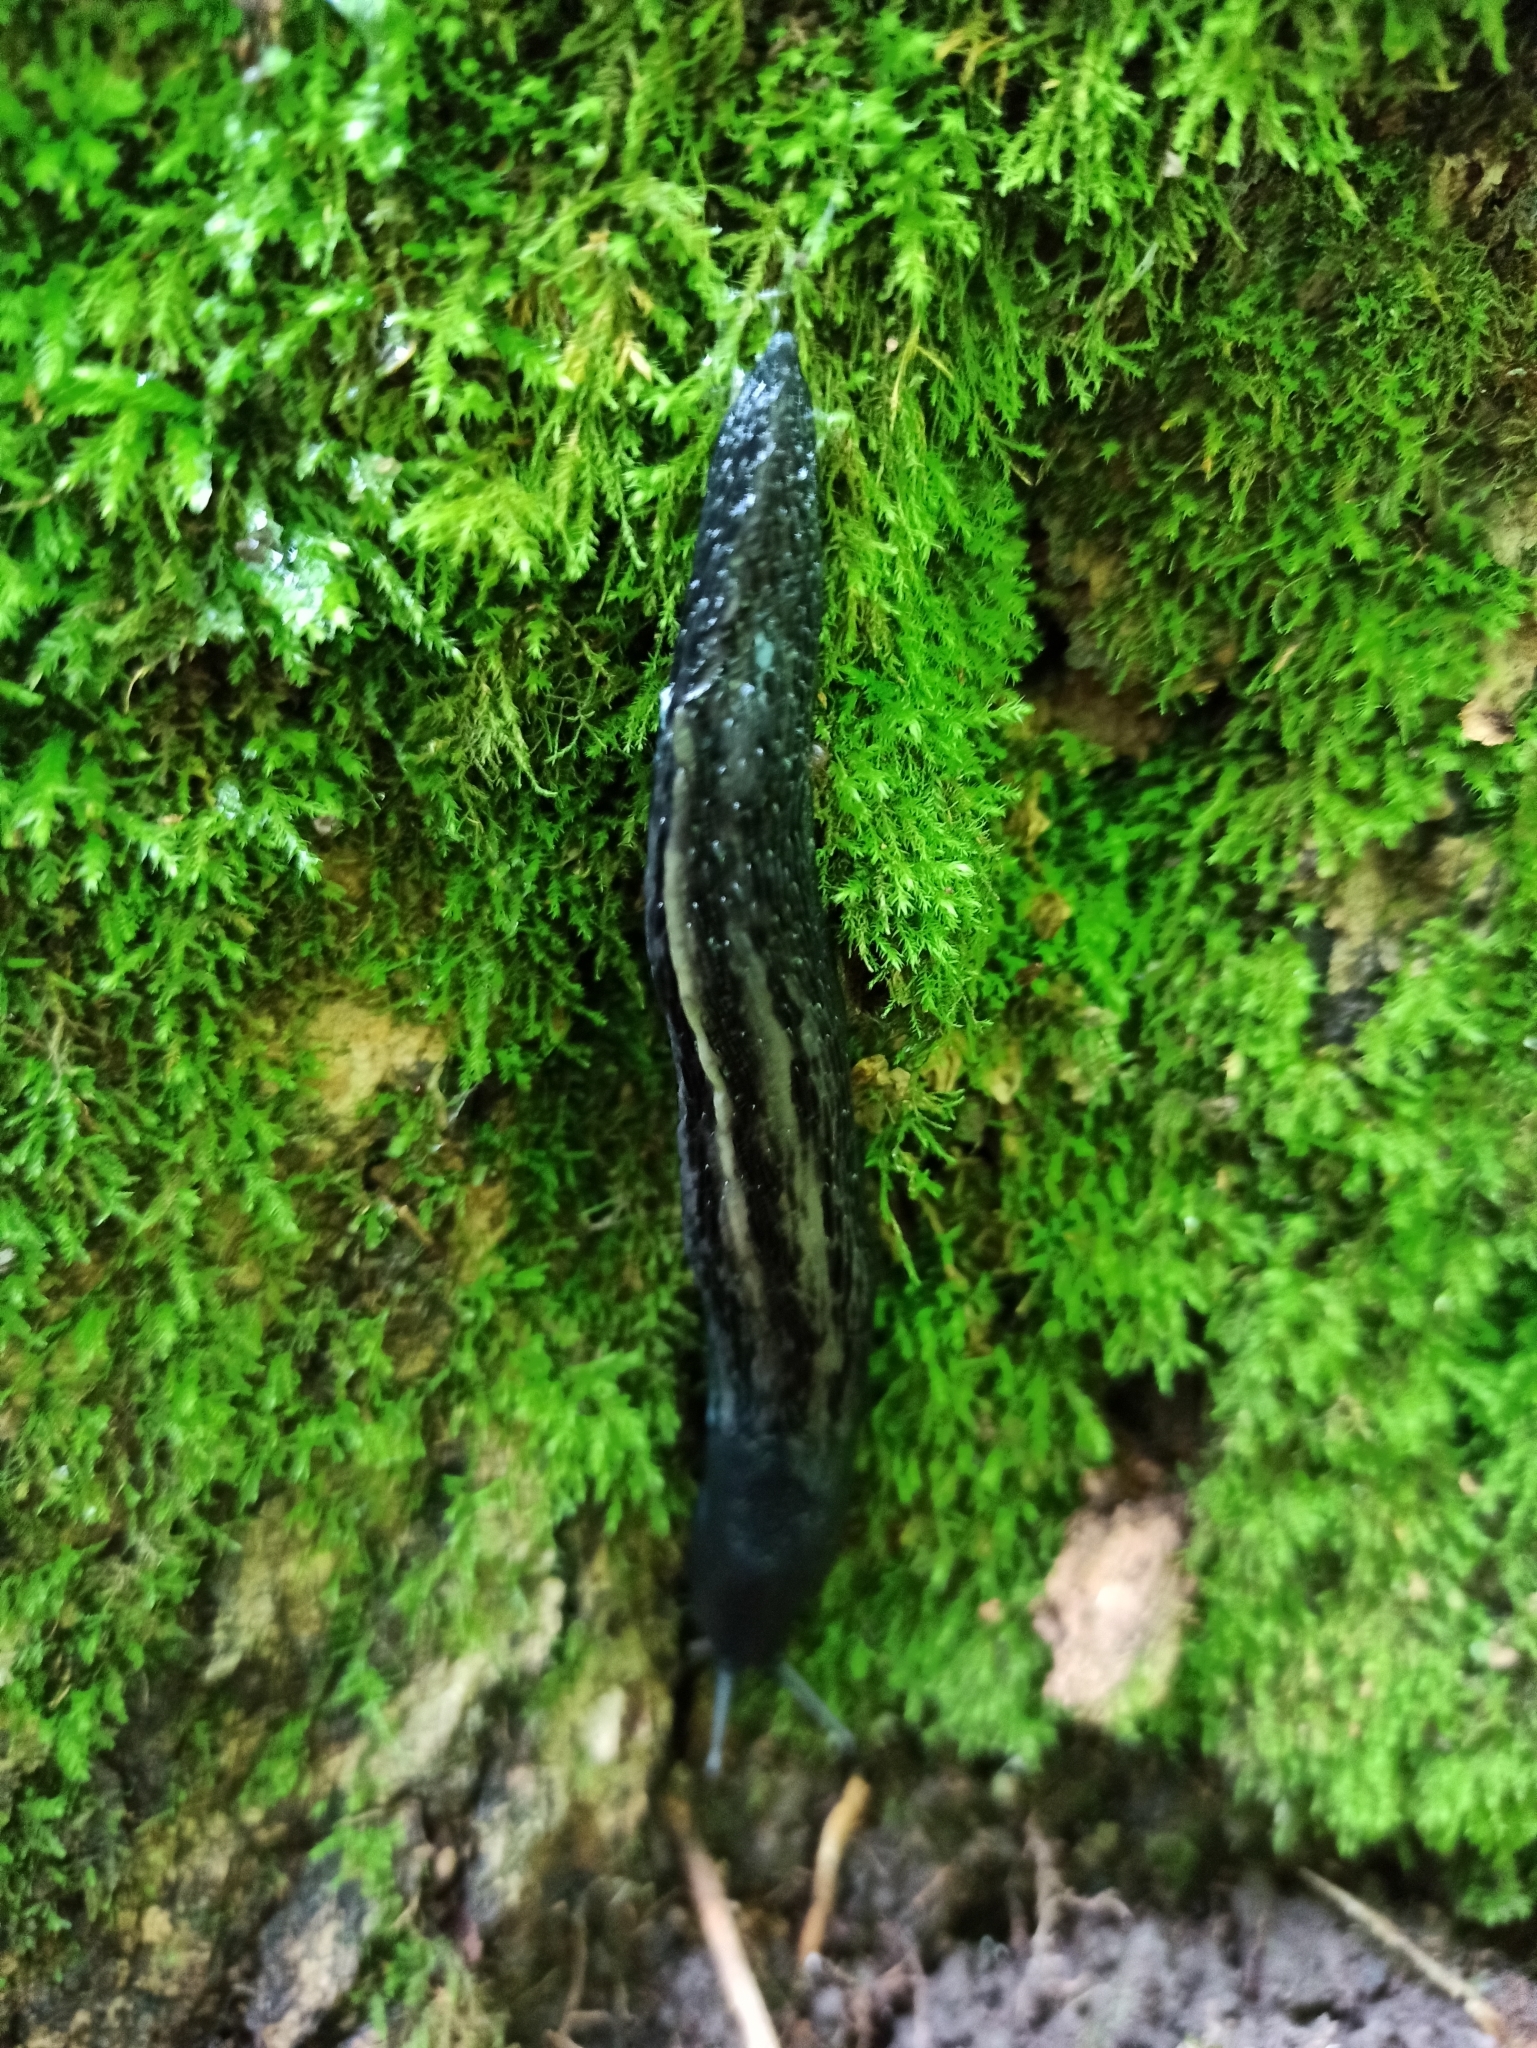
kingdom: Animalia
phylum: Mollusca
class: Gastropoda
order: Stylommatophora
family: Limacidae
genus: Limax
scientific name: Limax cinereoniger
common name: Ash-black slug
